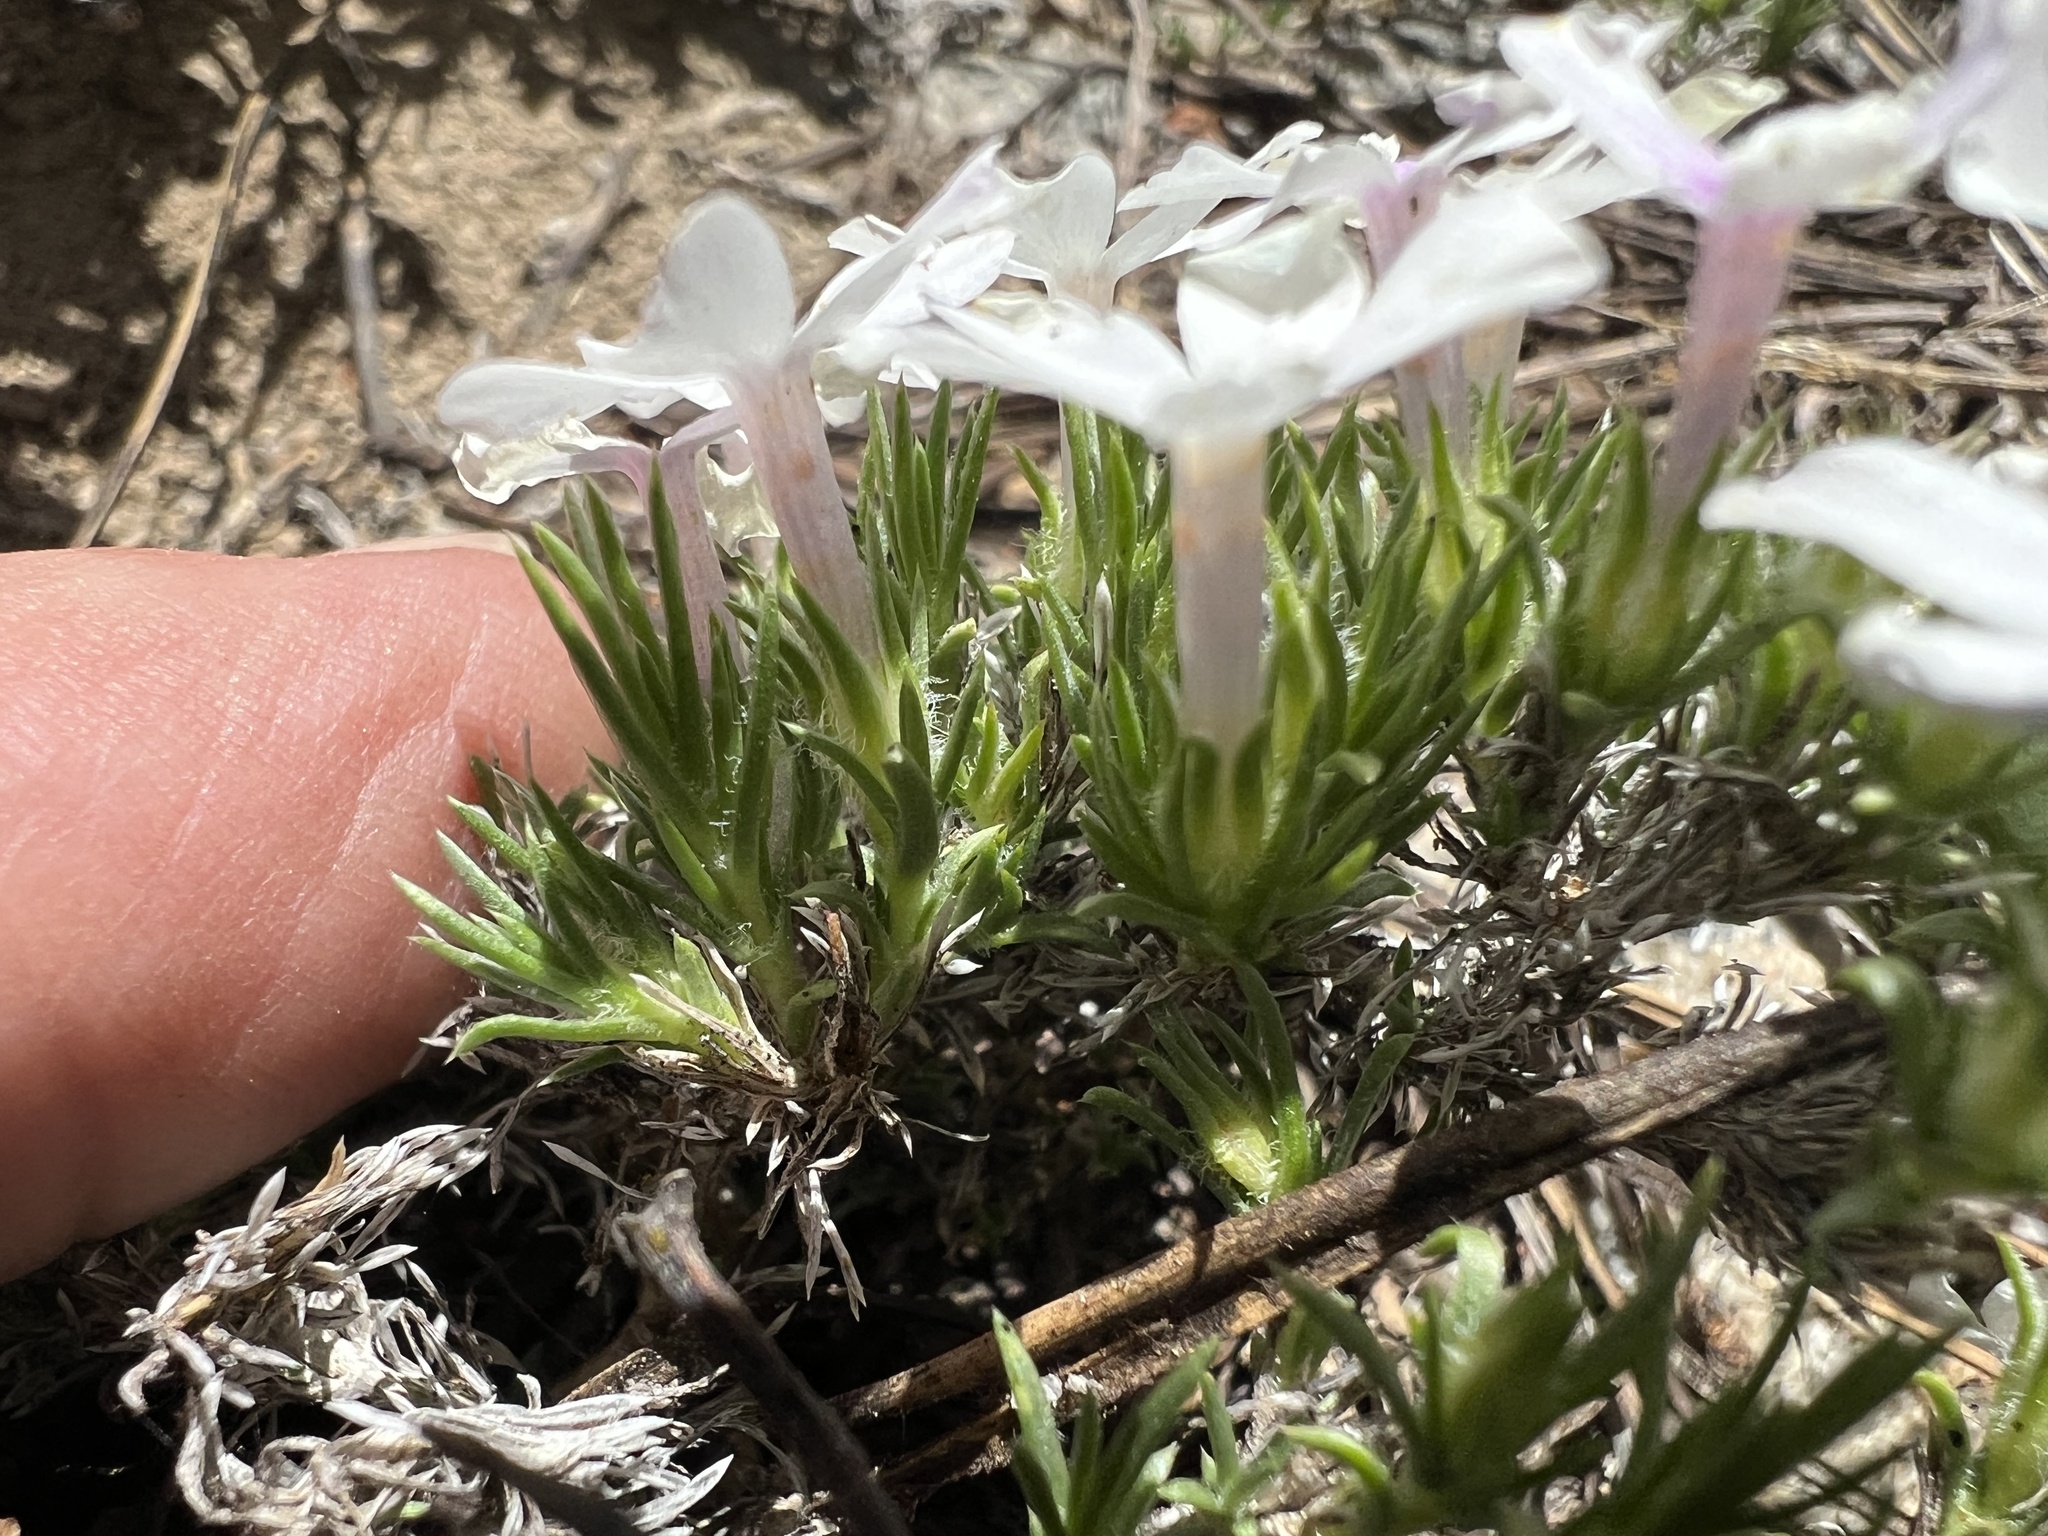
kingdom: Plantae
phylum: Tracheophyta
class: Magnoliopsida
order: Ericales
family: Polemoniaceae
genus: Phlox
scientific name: Phlox diffusa
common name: Mat phlox
